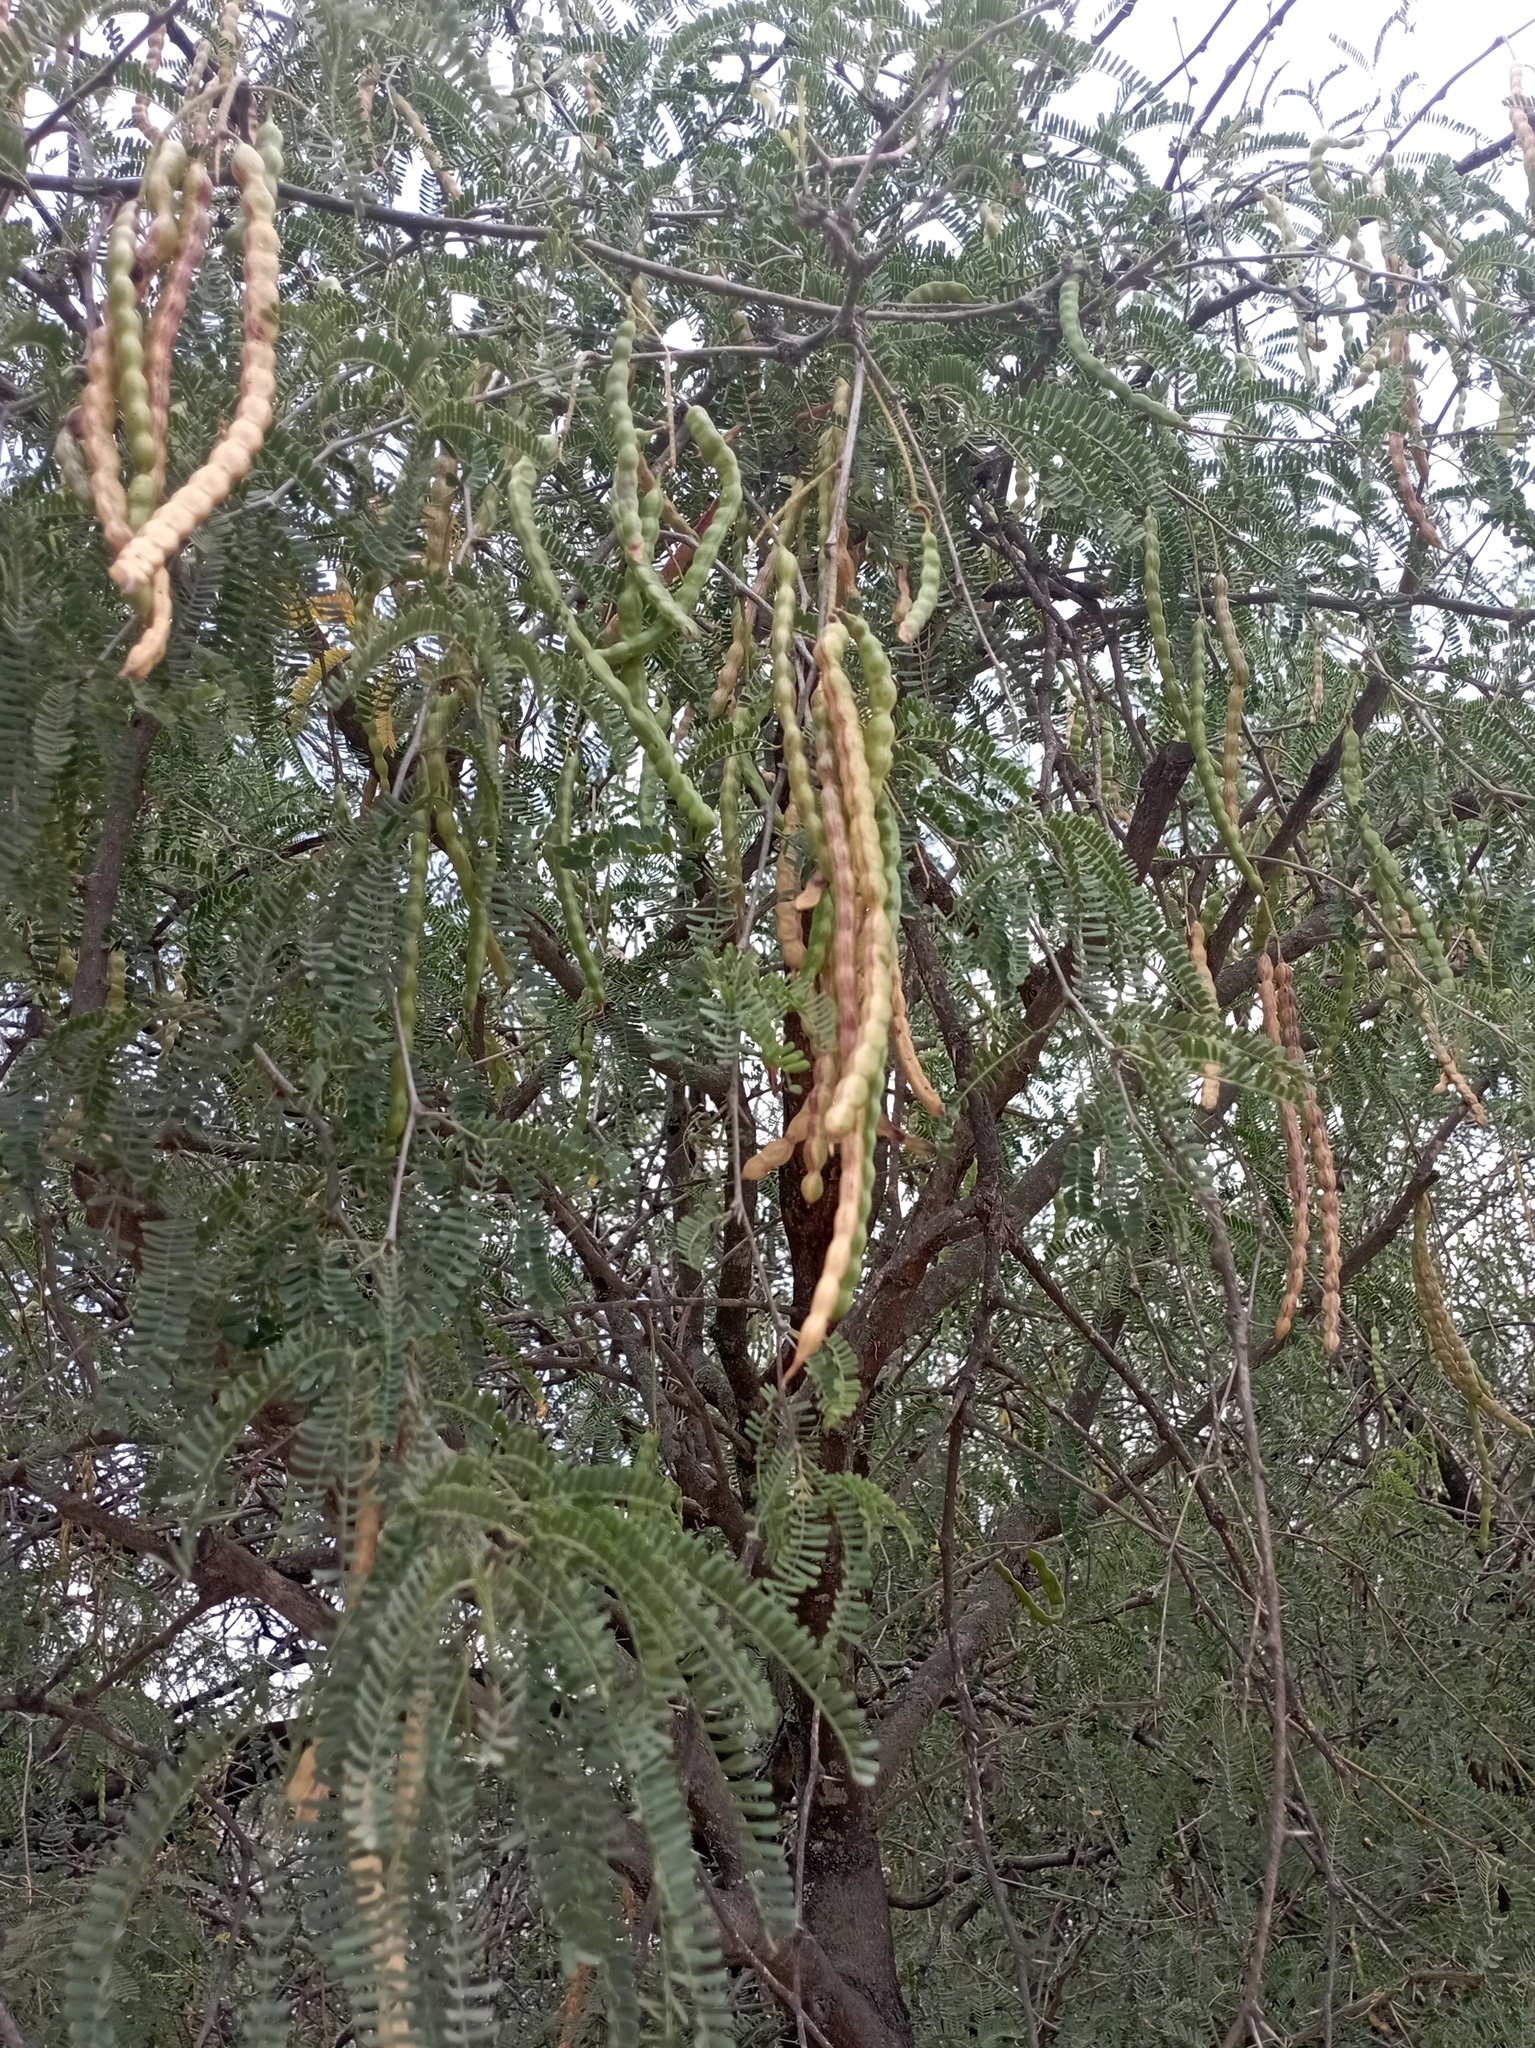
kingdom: Plantae
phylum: Tracheophyta
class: Magnoliopsida
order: Fabales
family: Fabaceae
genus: Prosopis
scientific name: Prosopis laevigata
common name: Smooth mesquite
